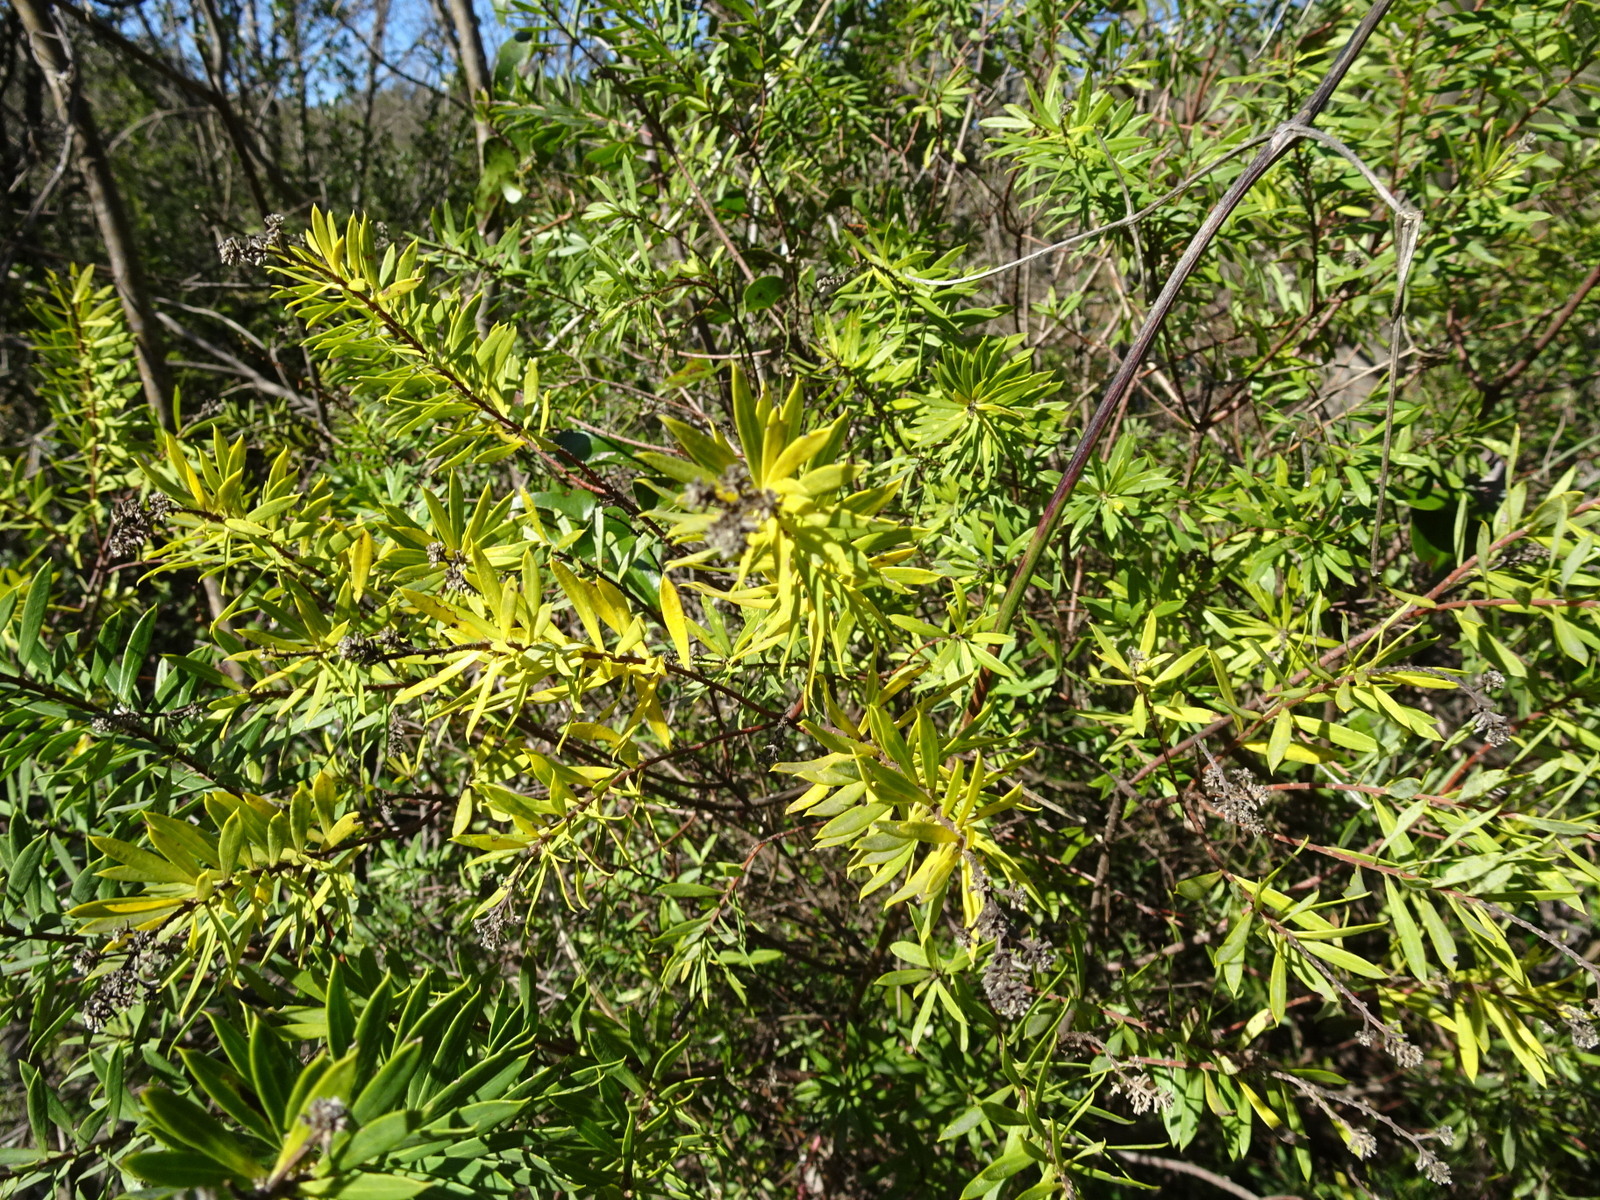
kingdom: Plantae
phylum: Tracheophyta
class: Magnoliopsida
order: Malvales
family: Thymelaeaceae
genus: Daphne
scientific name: Daphne gnidium
